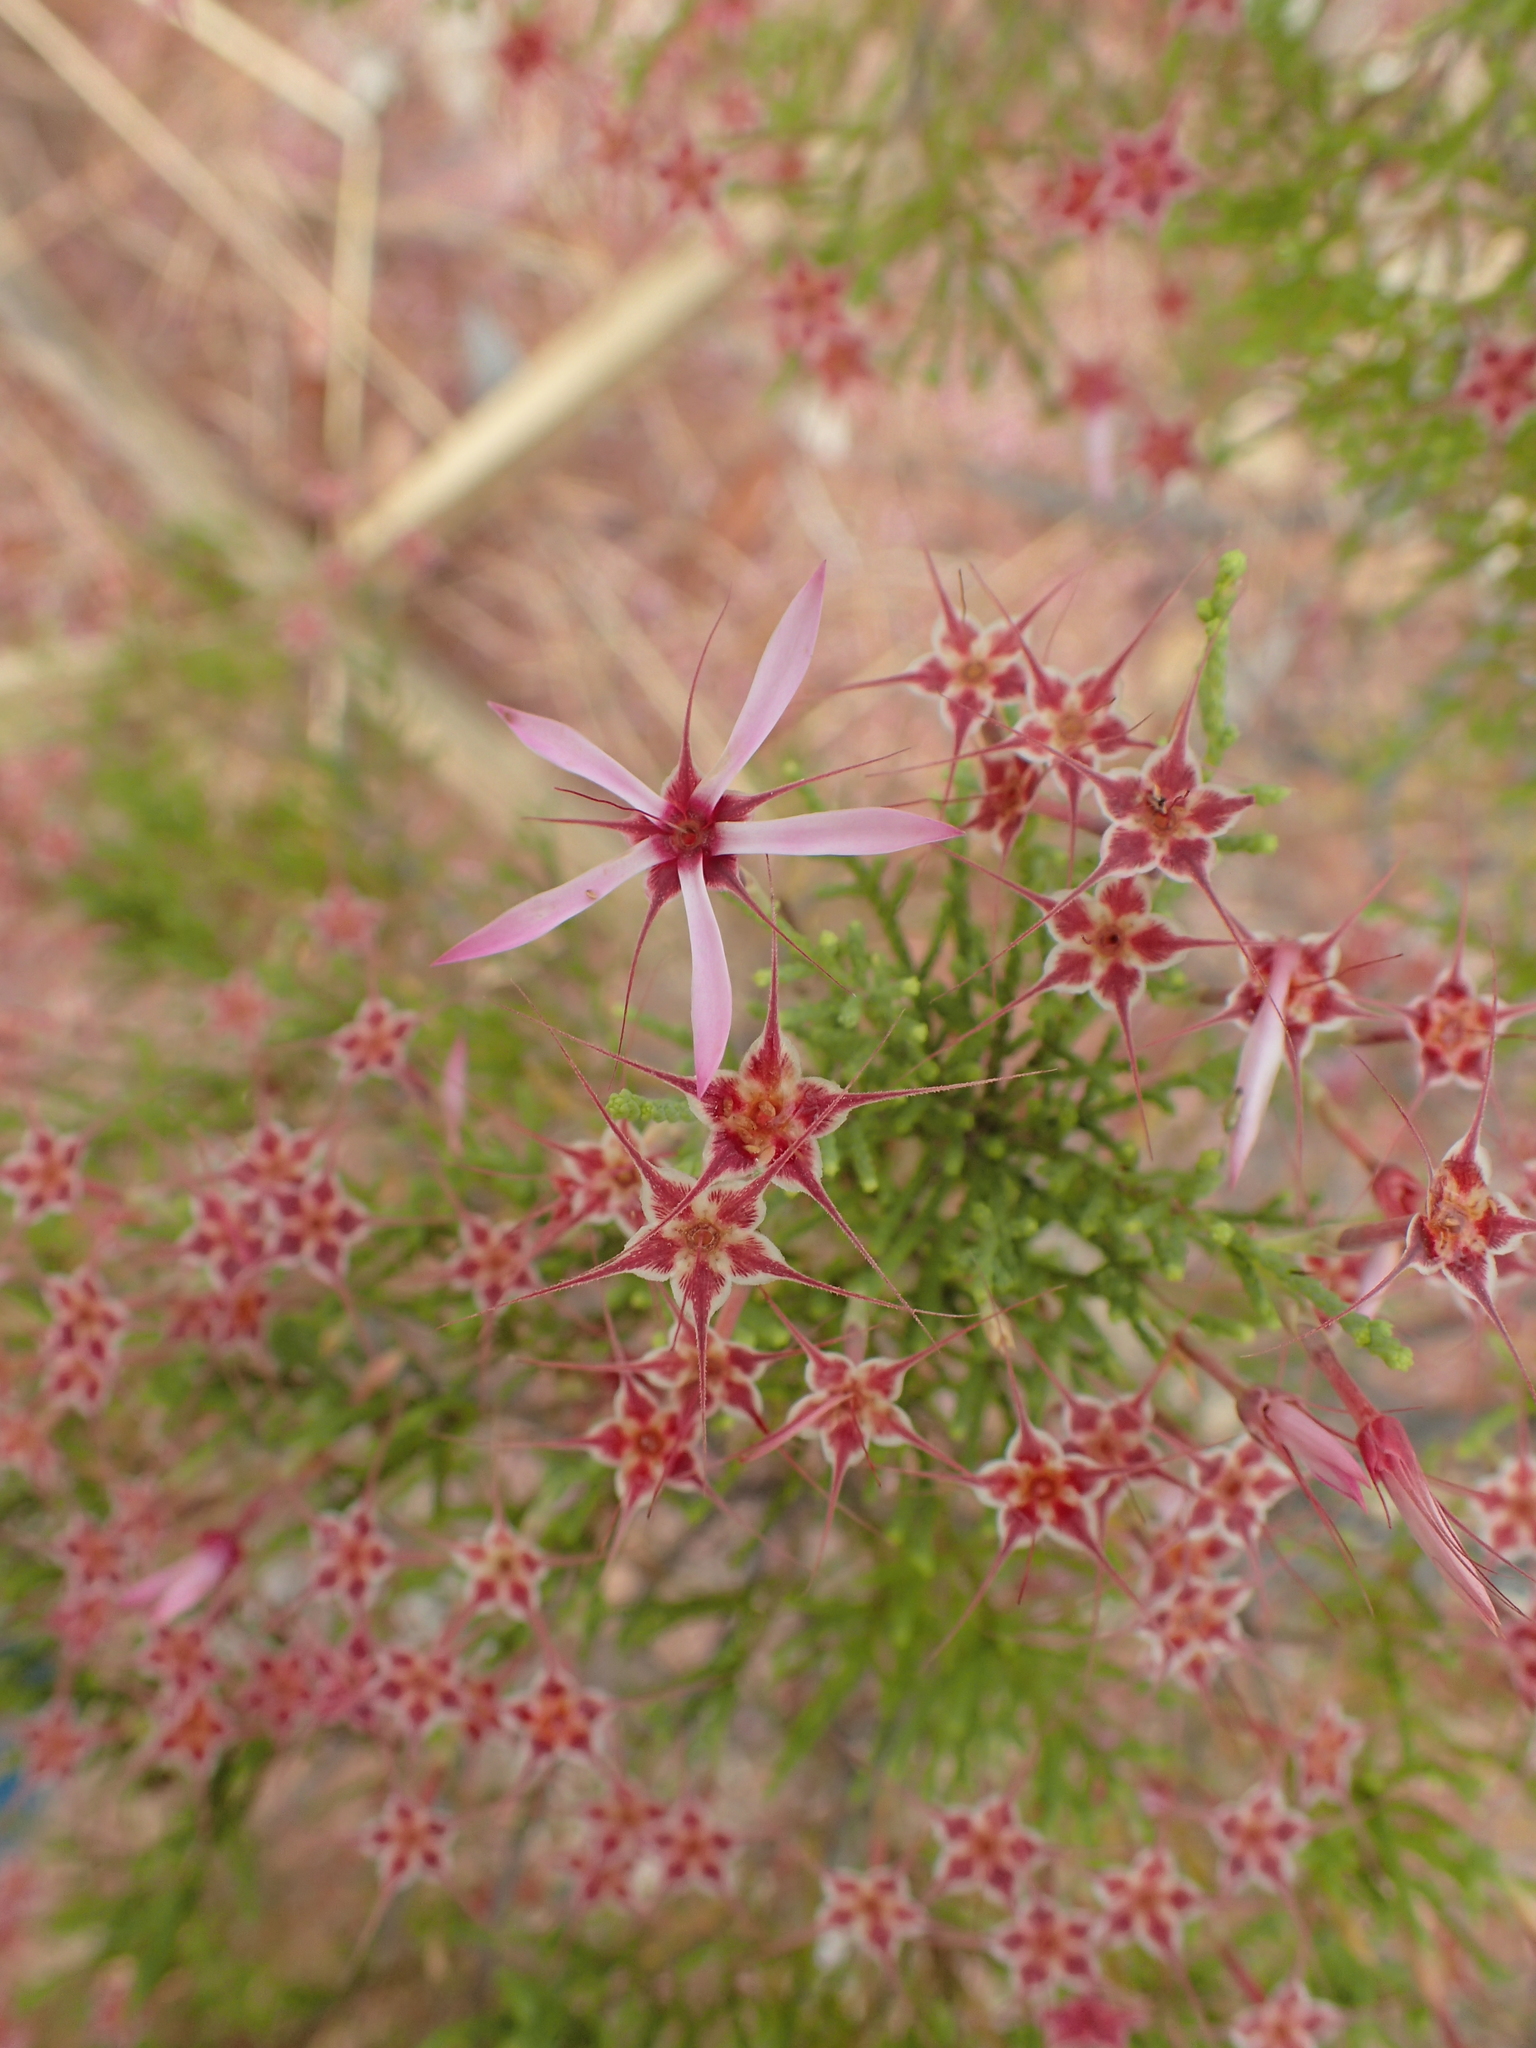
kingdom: Plantae
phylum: Tracheophyta
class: Magnoliopsida
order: Myrtales
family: Myrtaceae
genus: Calytrix
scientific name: Calytrix exstipulata
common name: Kimberley heather
